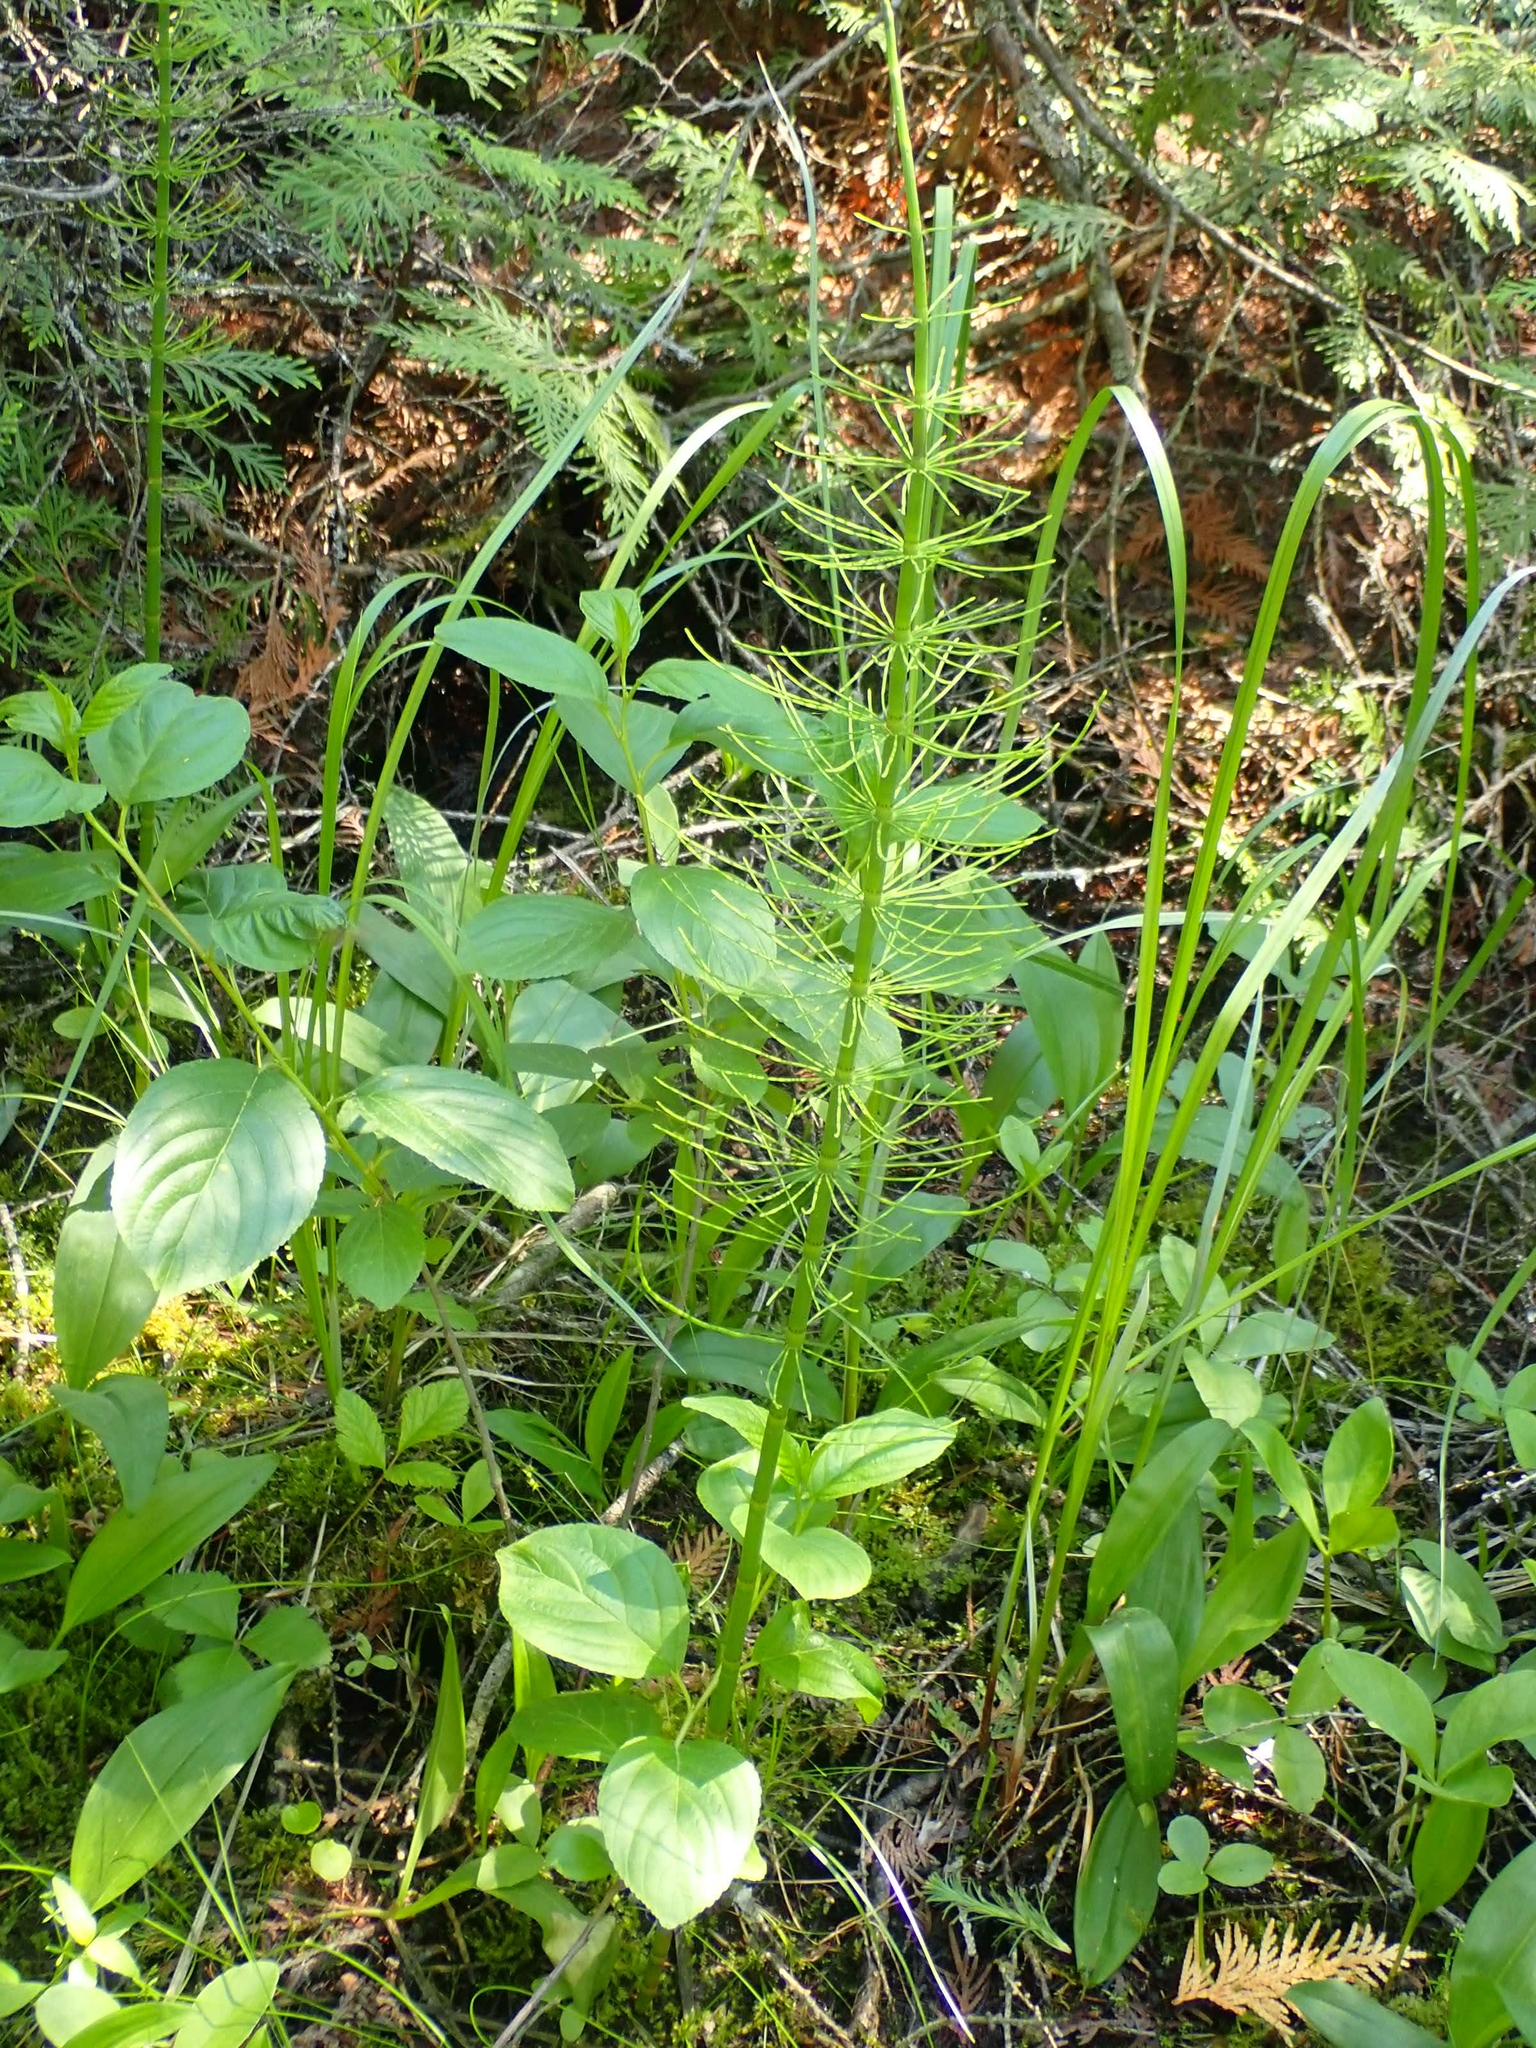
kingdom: Plantae
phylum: Tracheophyta
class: Polypodiopsida
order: Equisetales
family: Equisetaceae
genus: Equisetum
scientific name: Equisetum fluviatile
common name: Water horsetail
